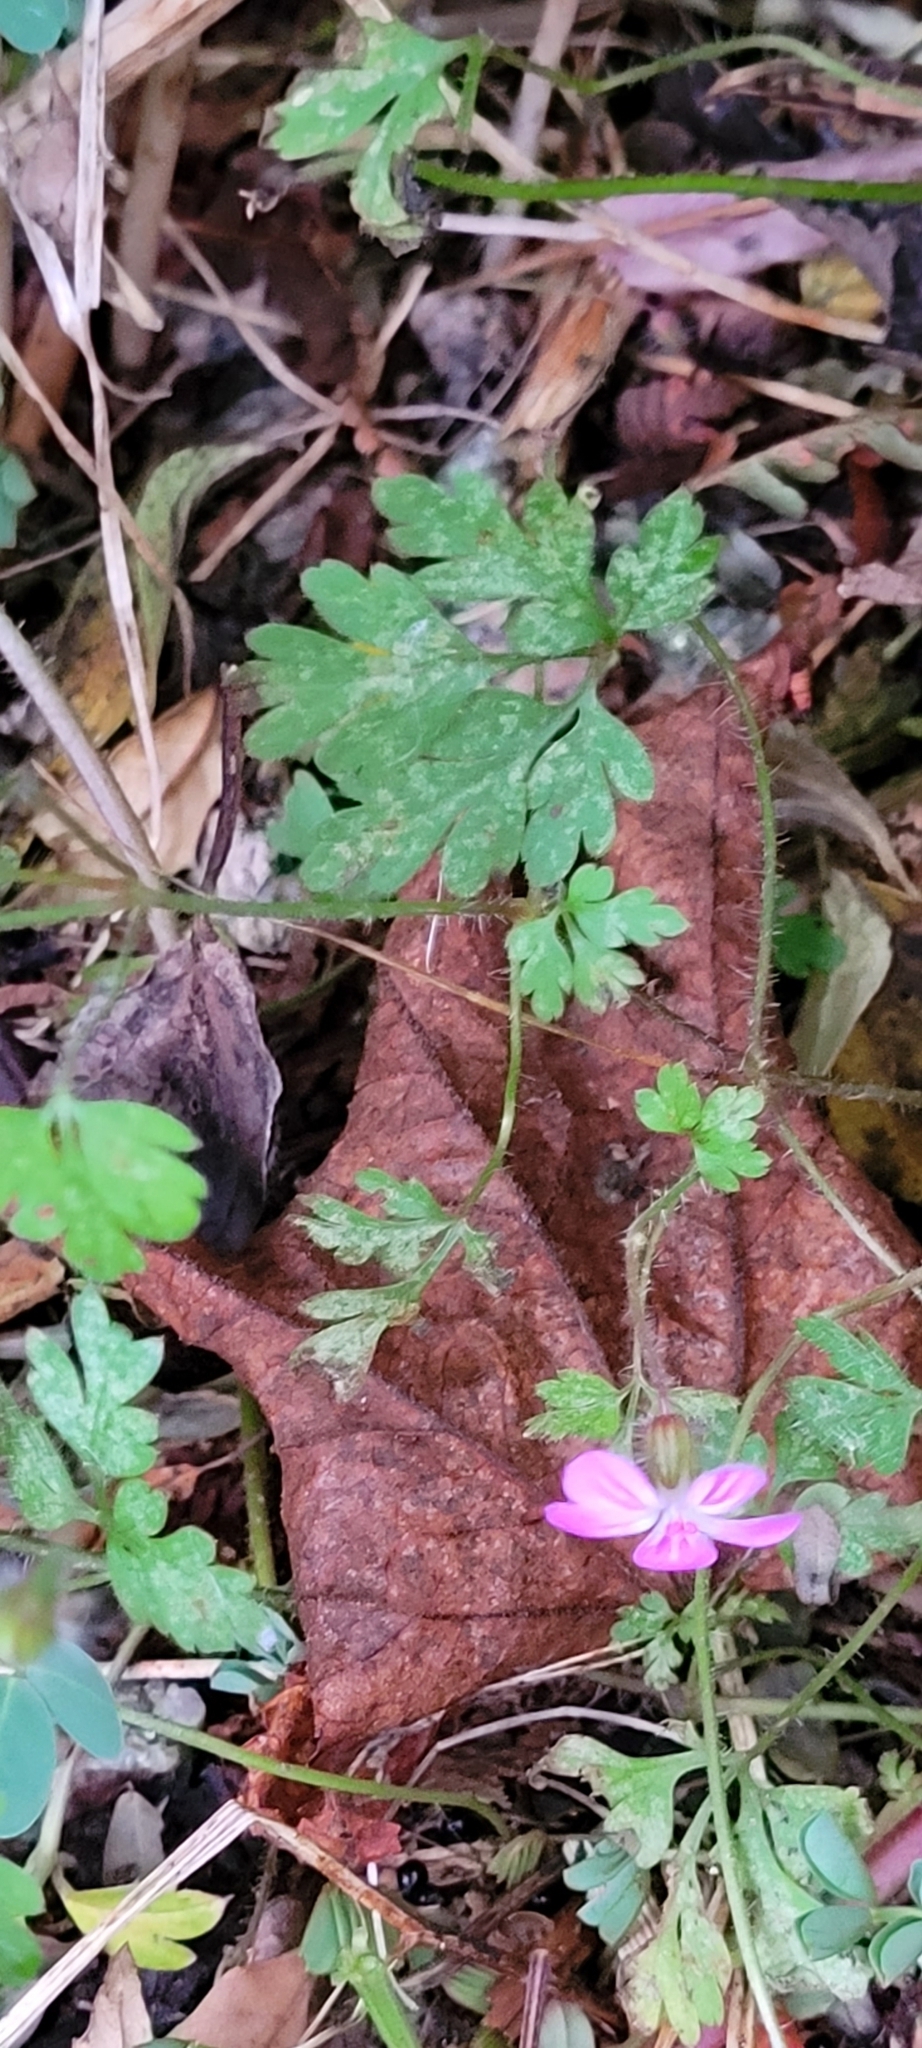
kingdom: Plantae
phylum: Tracheophyta
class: Magnoliopsida
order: Geraniales
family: Geraniaceae
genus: Geranium
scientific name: Geranium robertianum
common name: Herb-robert
